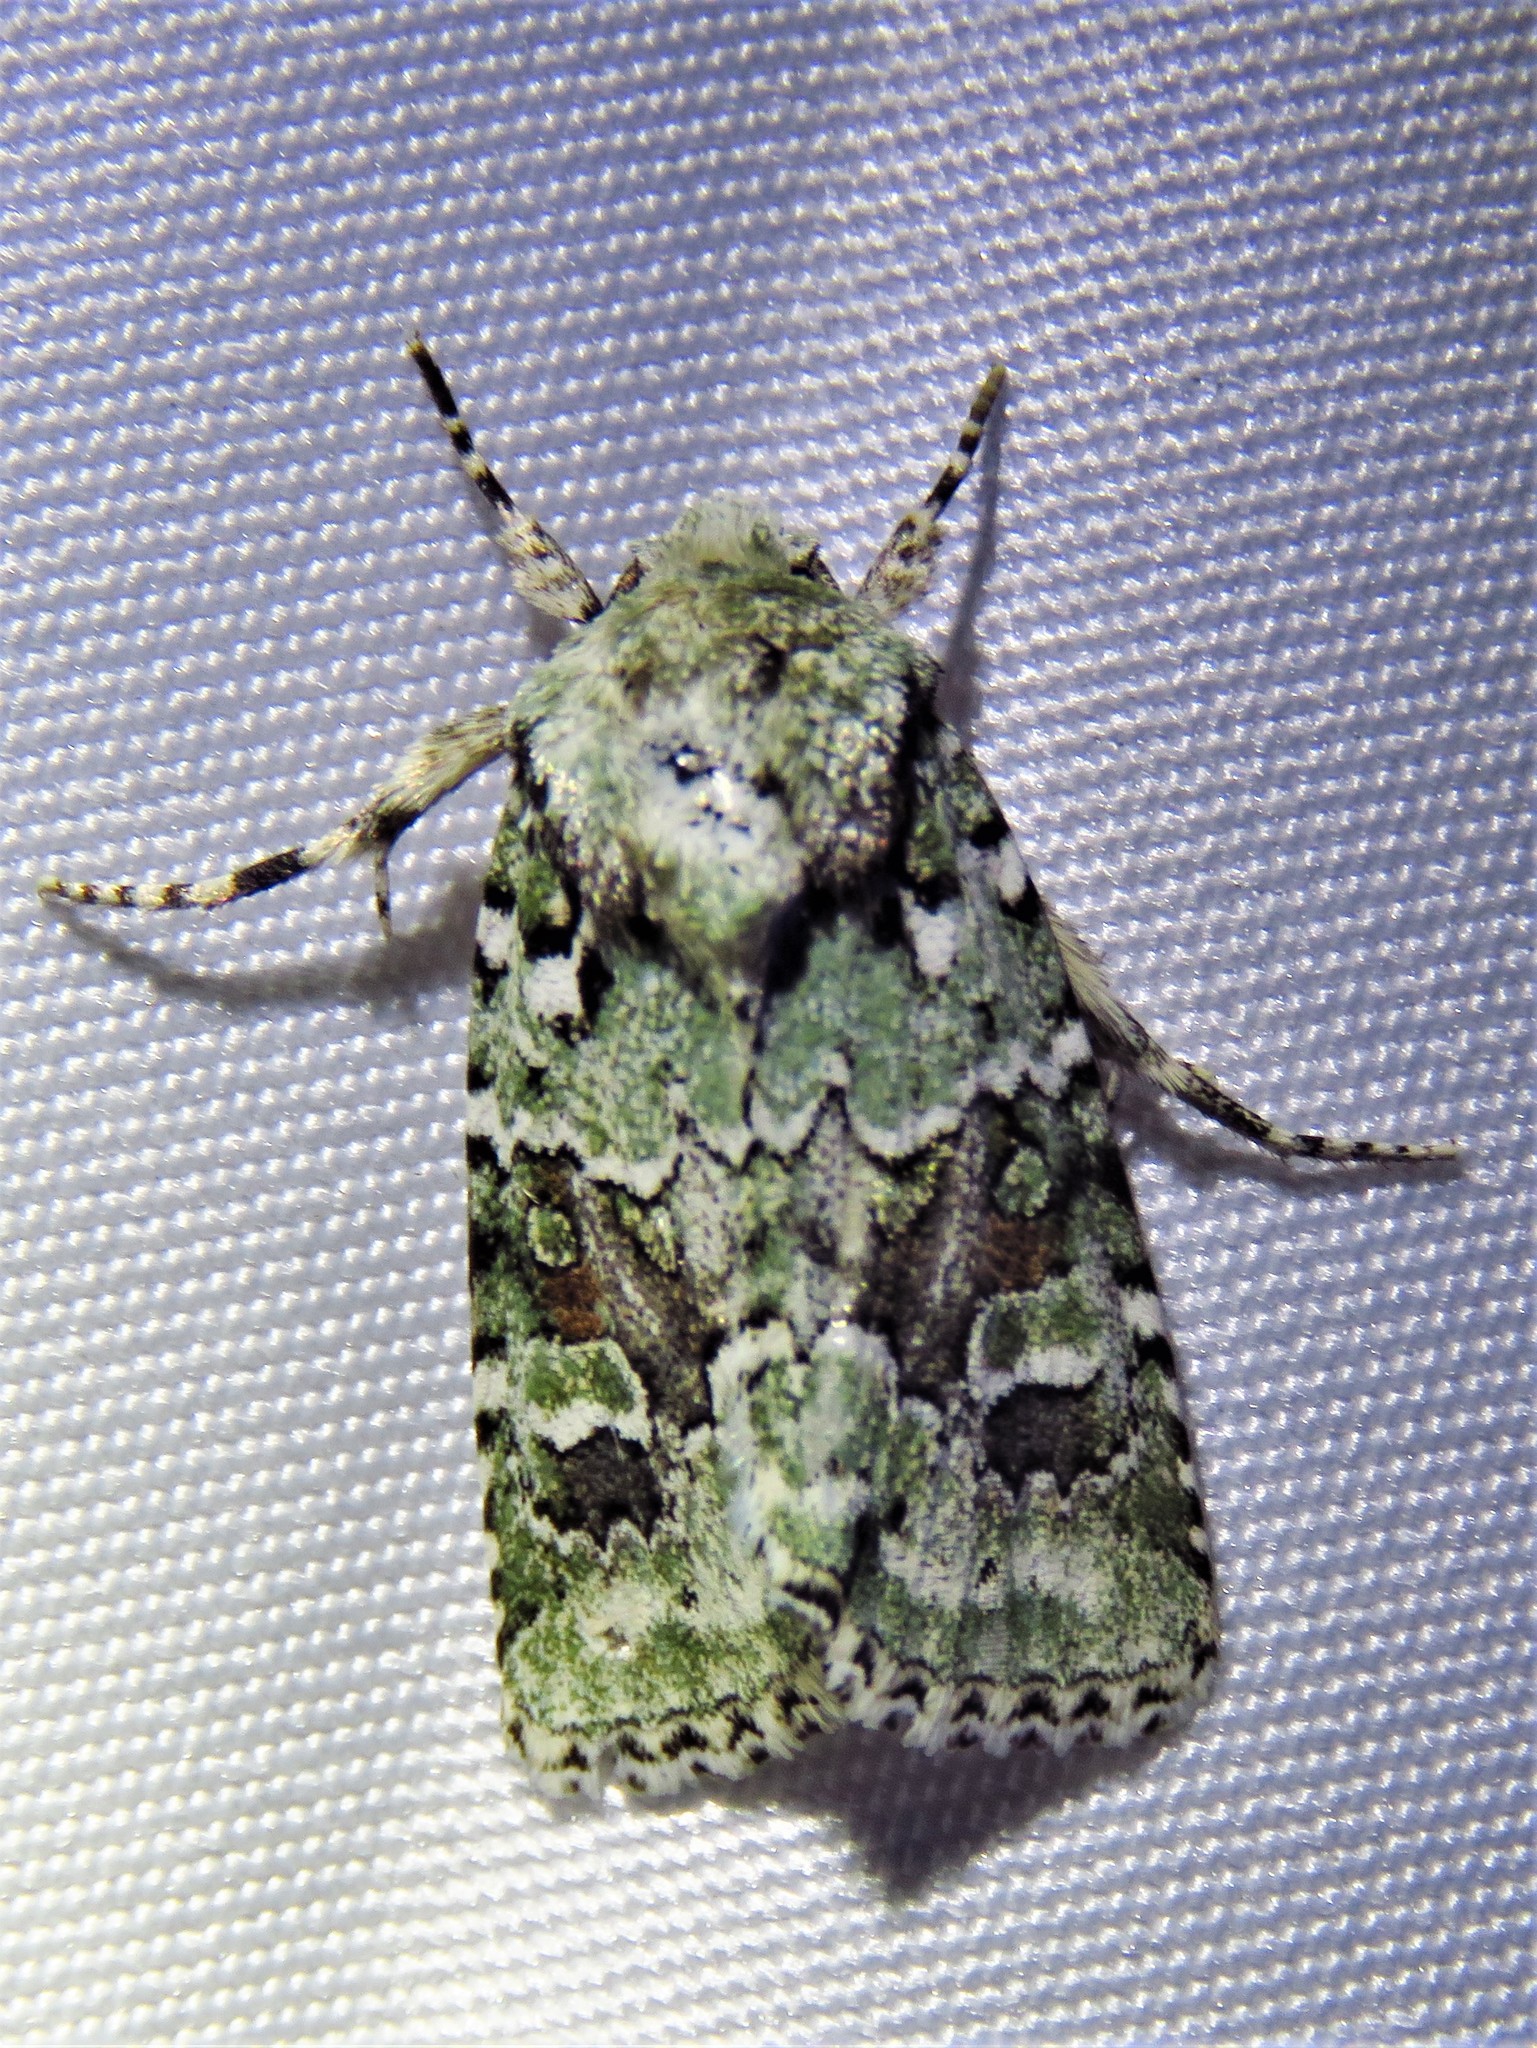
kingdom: Animalia
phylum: Arthropoda
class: Insecta
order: Lepidoptera
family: Noctuidae
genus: Lacinipolia
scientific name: Lacinipolia laudabilis
